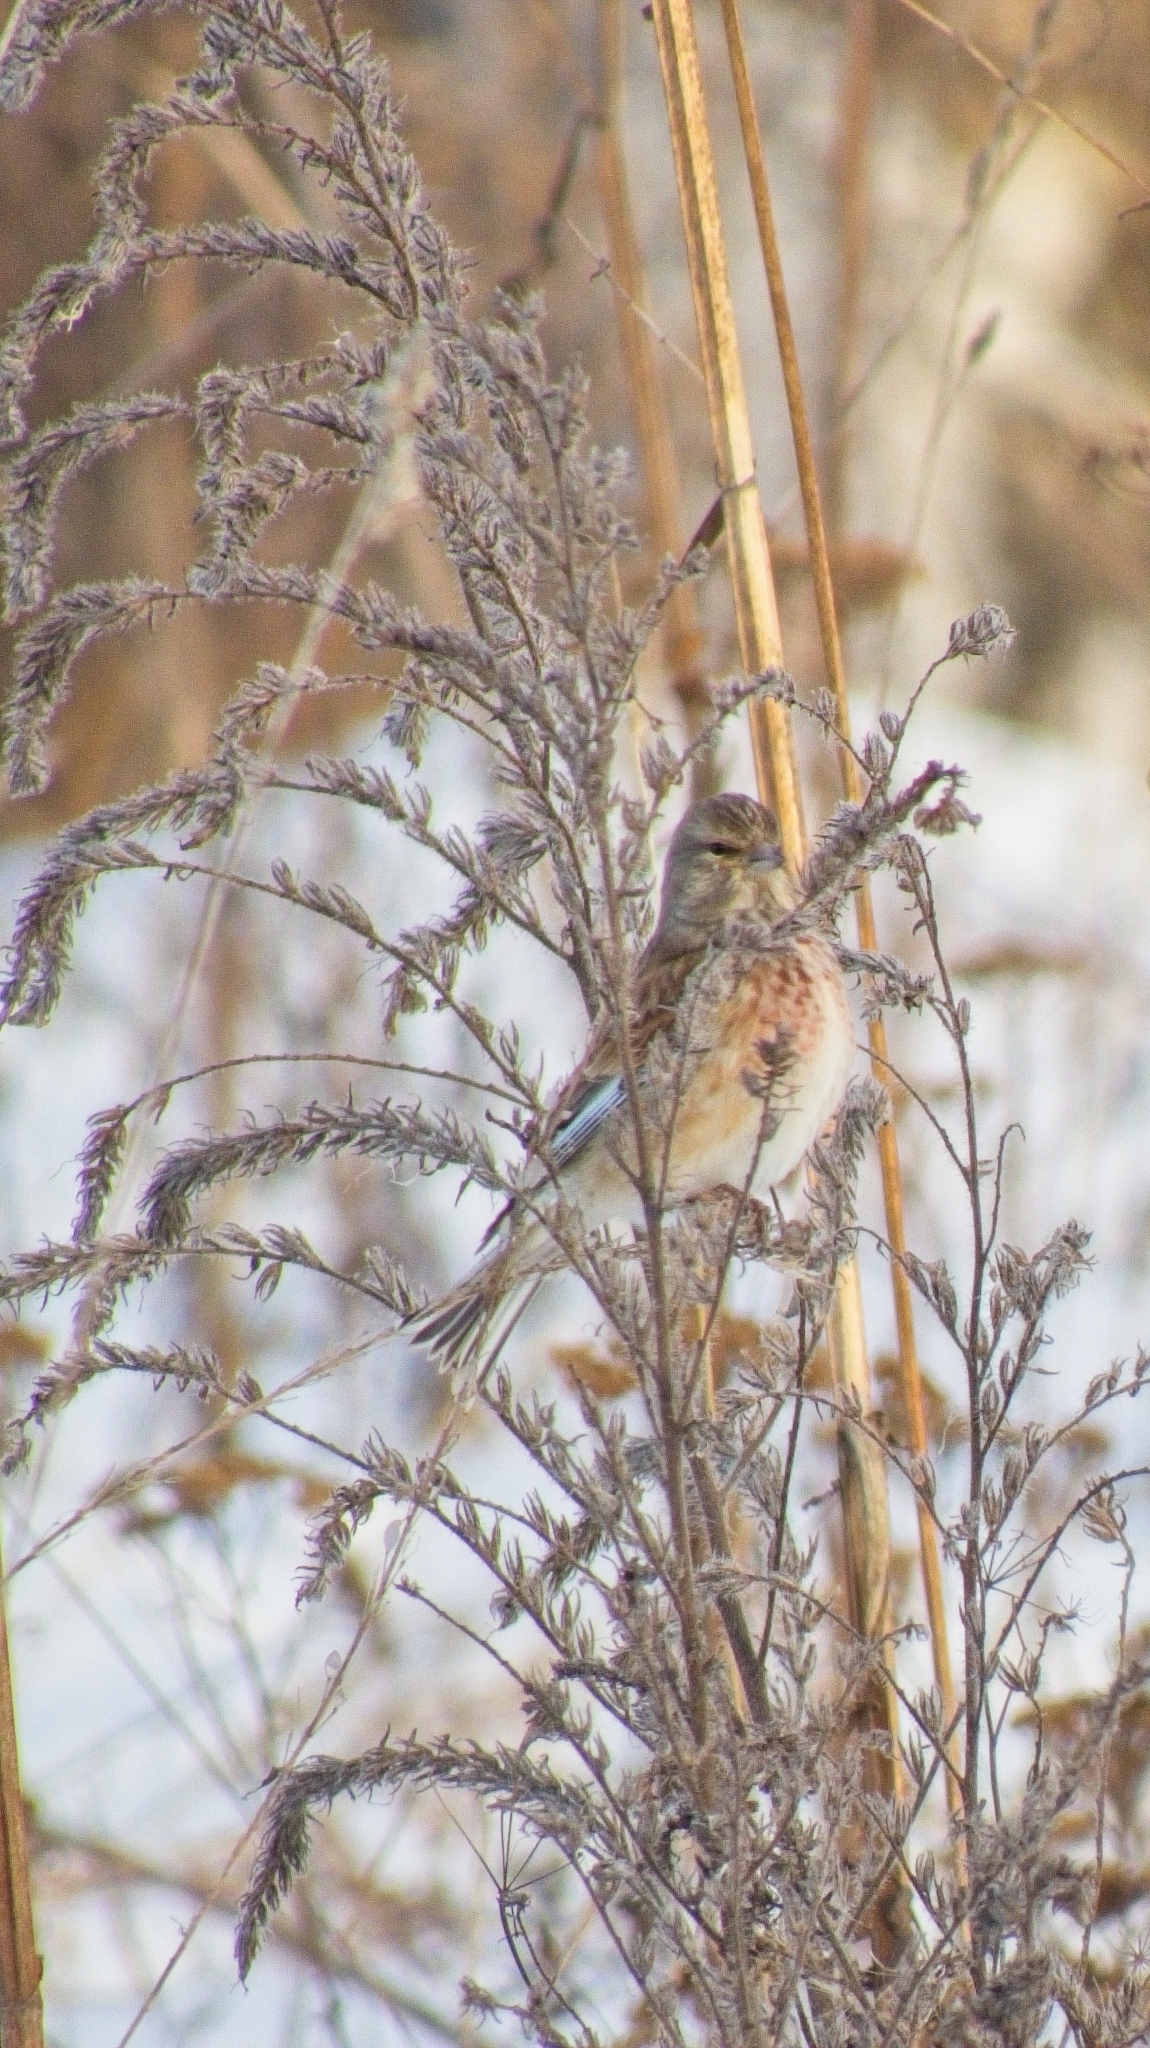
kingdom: Animalia
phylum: Chordata
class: Aves
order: Passeriformes
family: Fringillidae
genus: Linaria
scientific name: Linaria cannabina
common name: Common linnet
